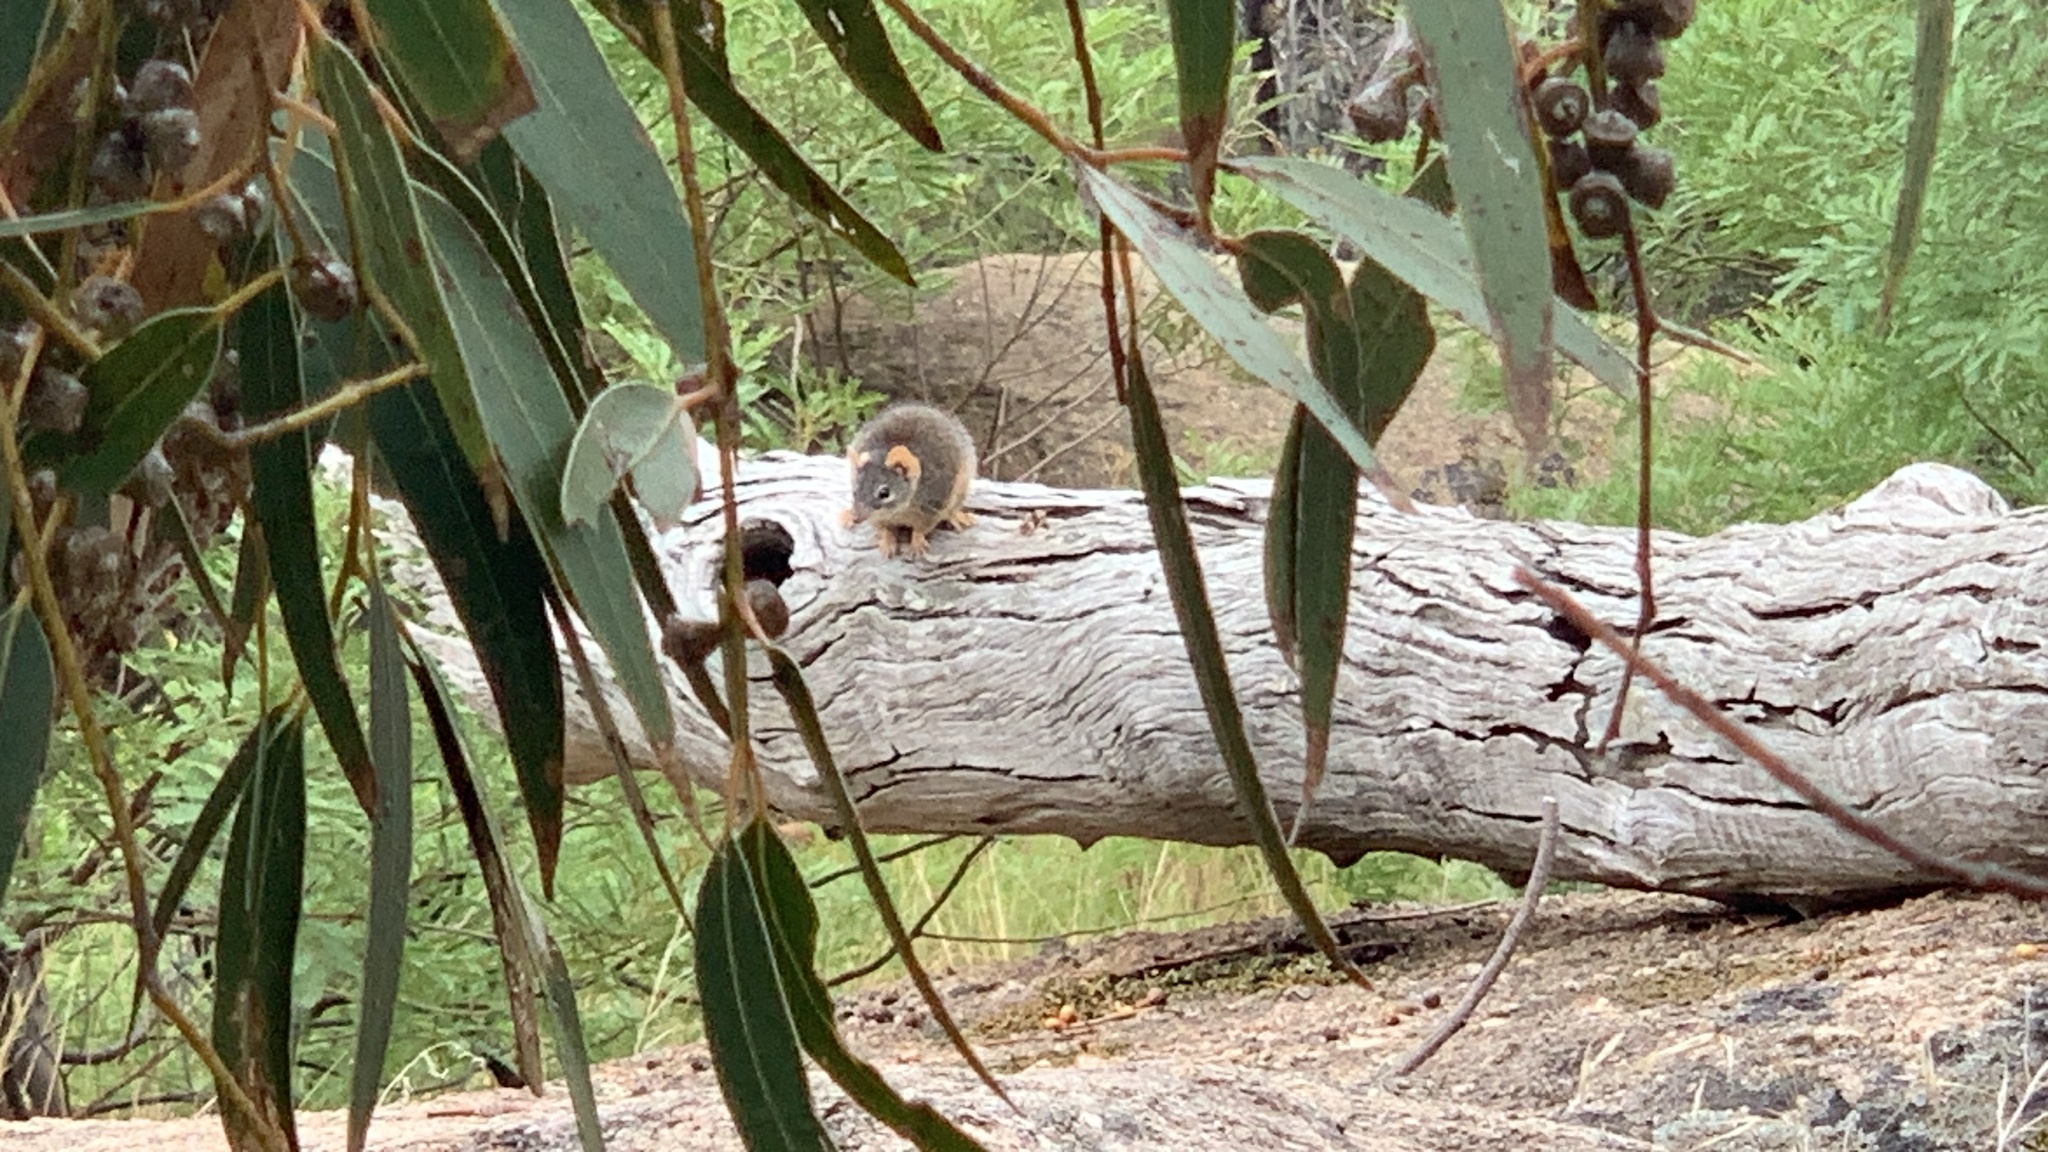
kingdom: Animalia
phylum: Chordata
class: Mammalia
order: Dasyuromorphia
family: Dasyuridae
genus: Antechinus
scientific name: Antechinus flavipes
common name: Yellow-footed antechinus
